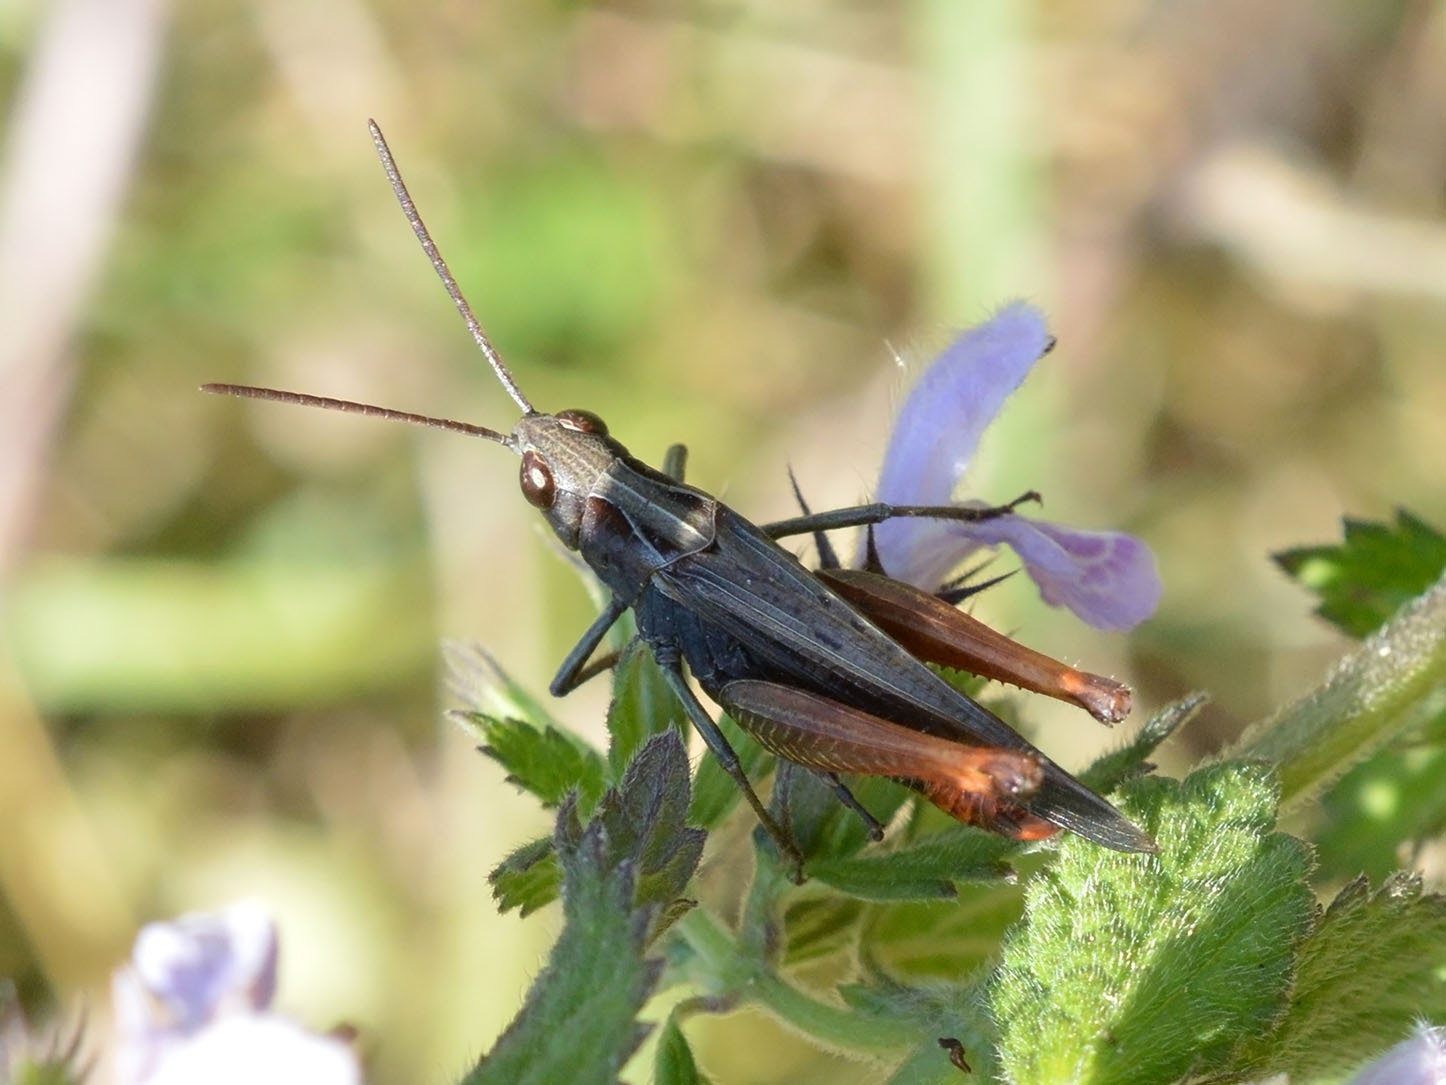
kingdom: Animalia
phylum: Arthropoda
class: Insecta
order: Orthoptera
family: Acrididae
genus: Omocestus
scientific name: Omocestus rufipes
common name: Woodland grasshopper
